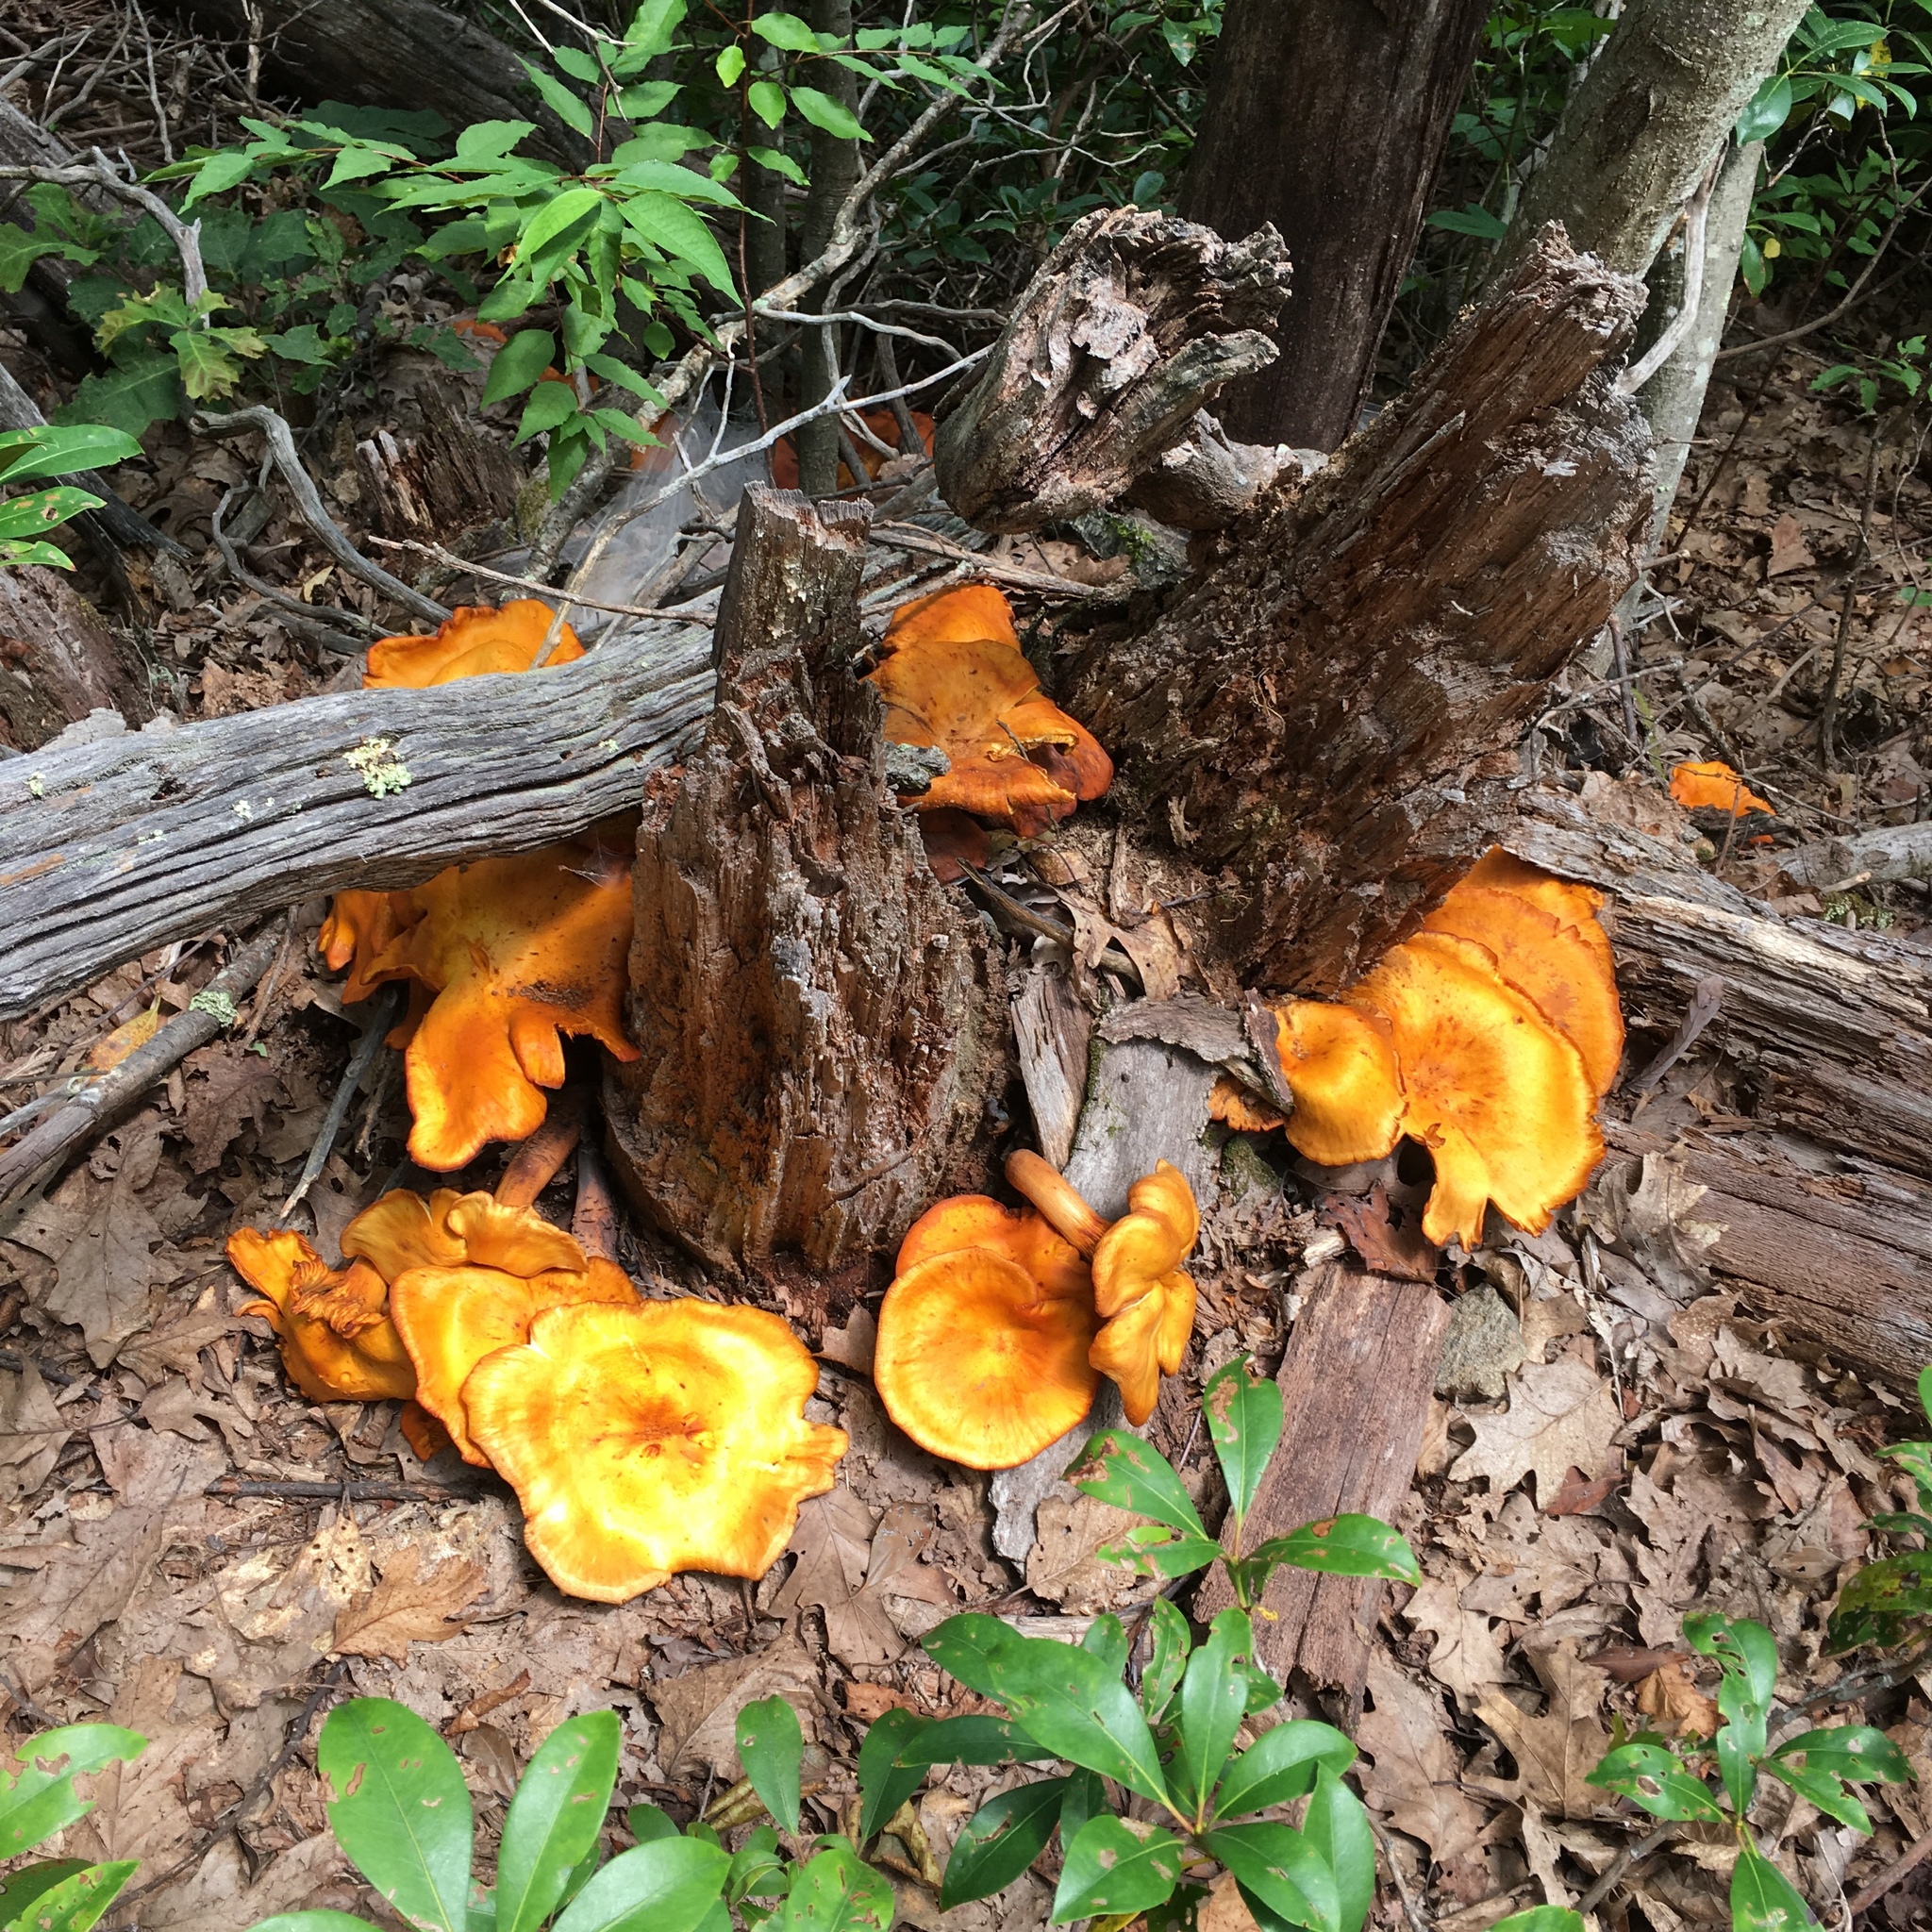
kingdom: Fungi
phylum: Basidiomycota
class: Agaricomycetes
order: Agaricales
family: Omphalotaceae
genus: Omphalotus
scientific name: Omphalotus illudens
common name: Jack o lantern
